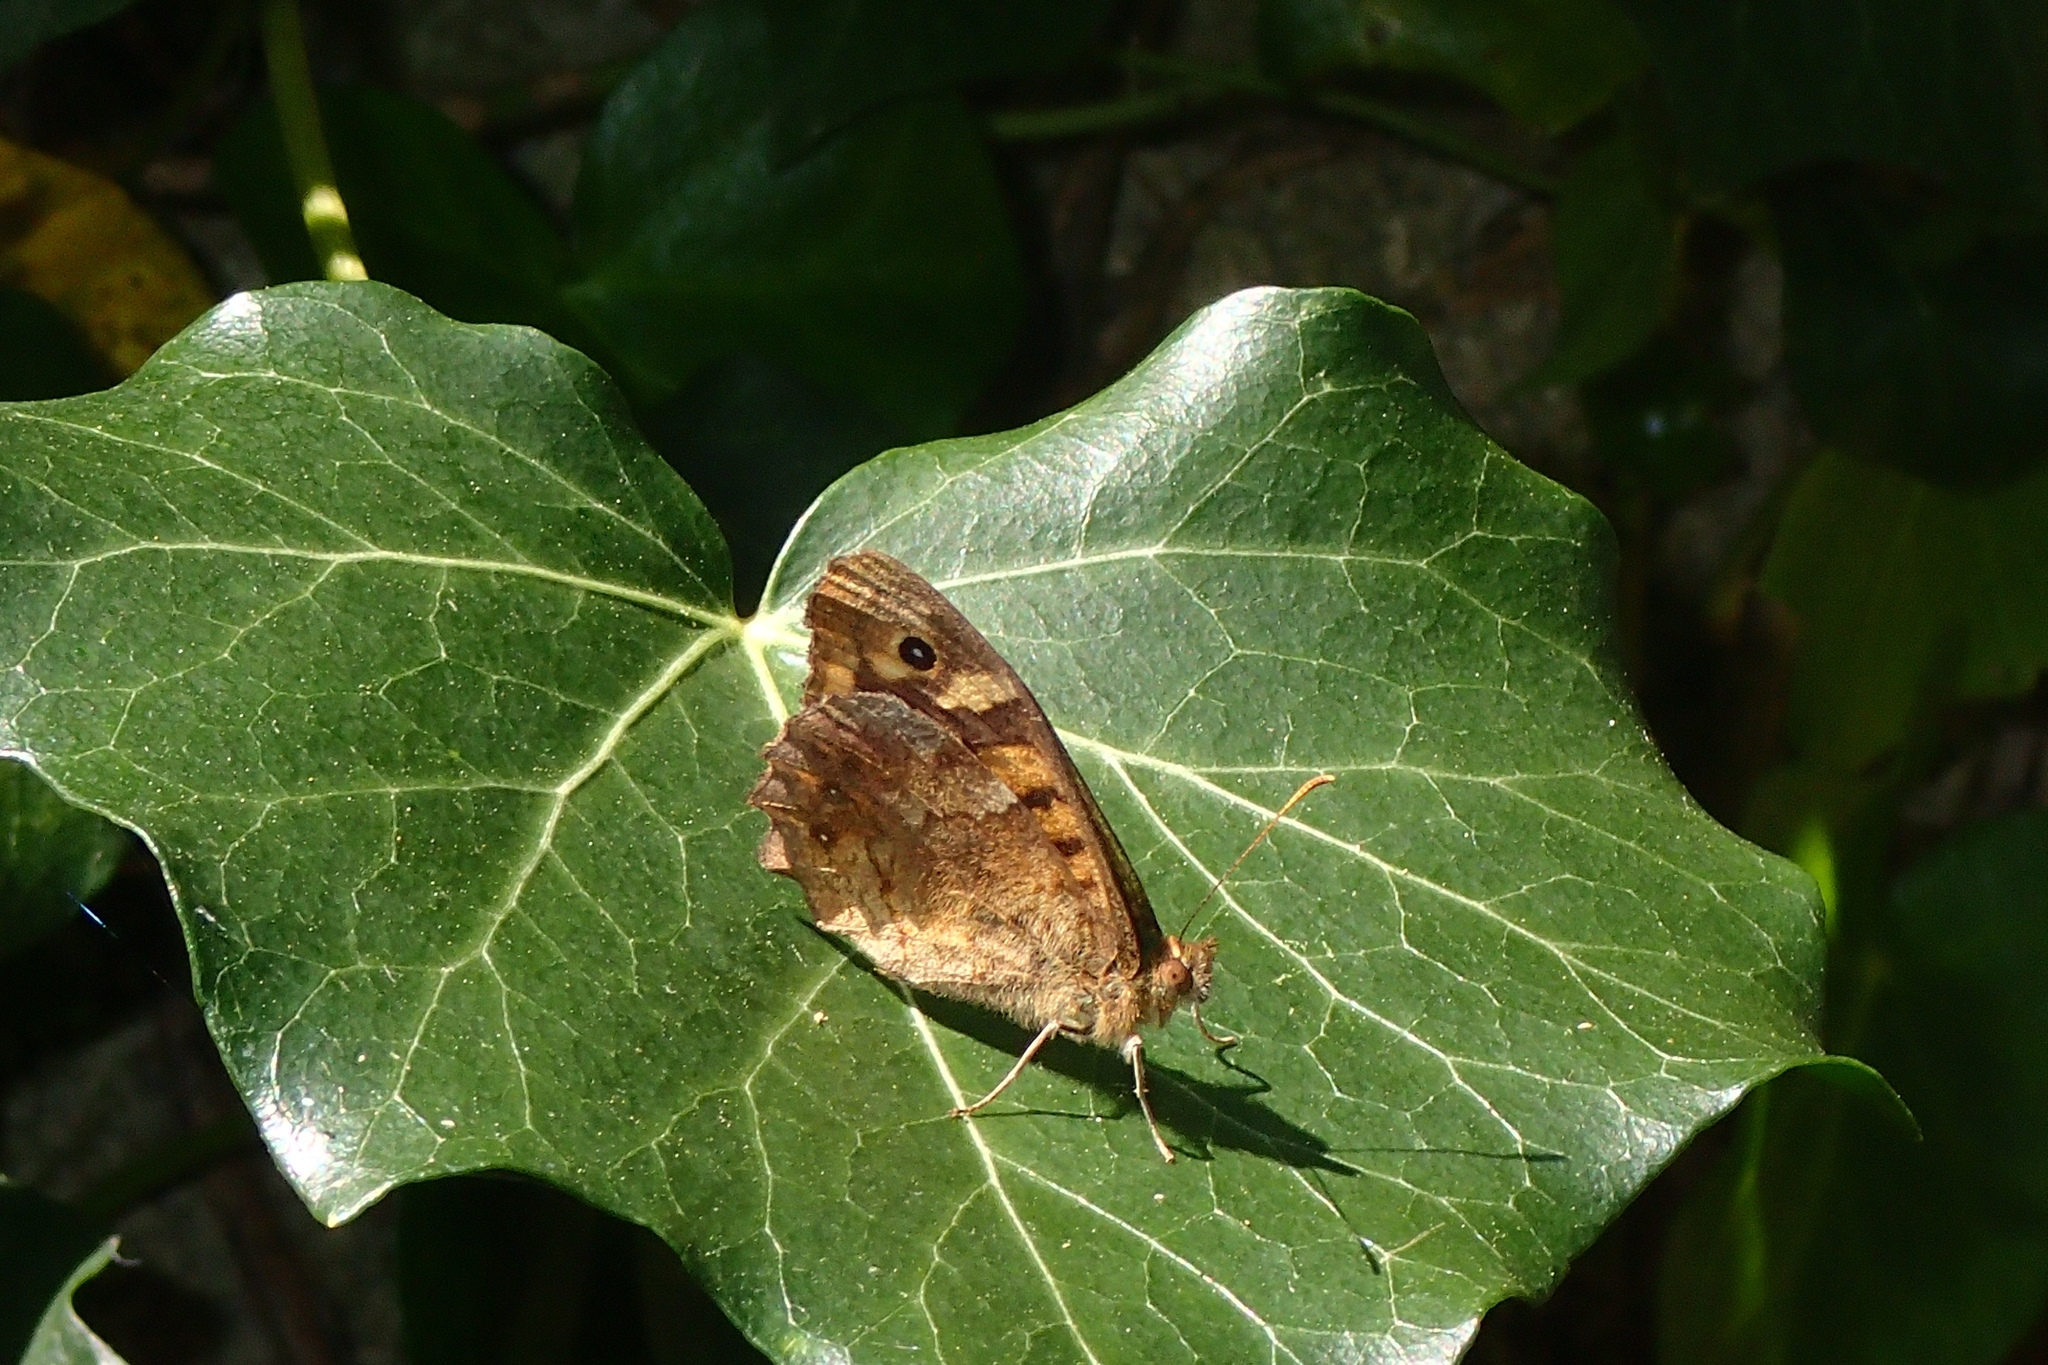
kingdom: Animalia
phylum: Arthropoda
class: Insecta
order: Lepidoptera
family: Nymphalidae
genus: Pararge
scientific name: Pararge aegeria
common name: Speckled wood
